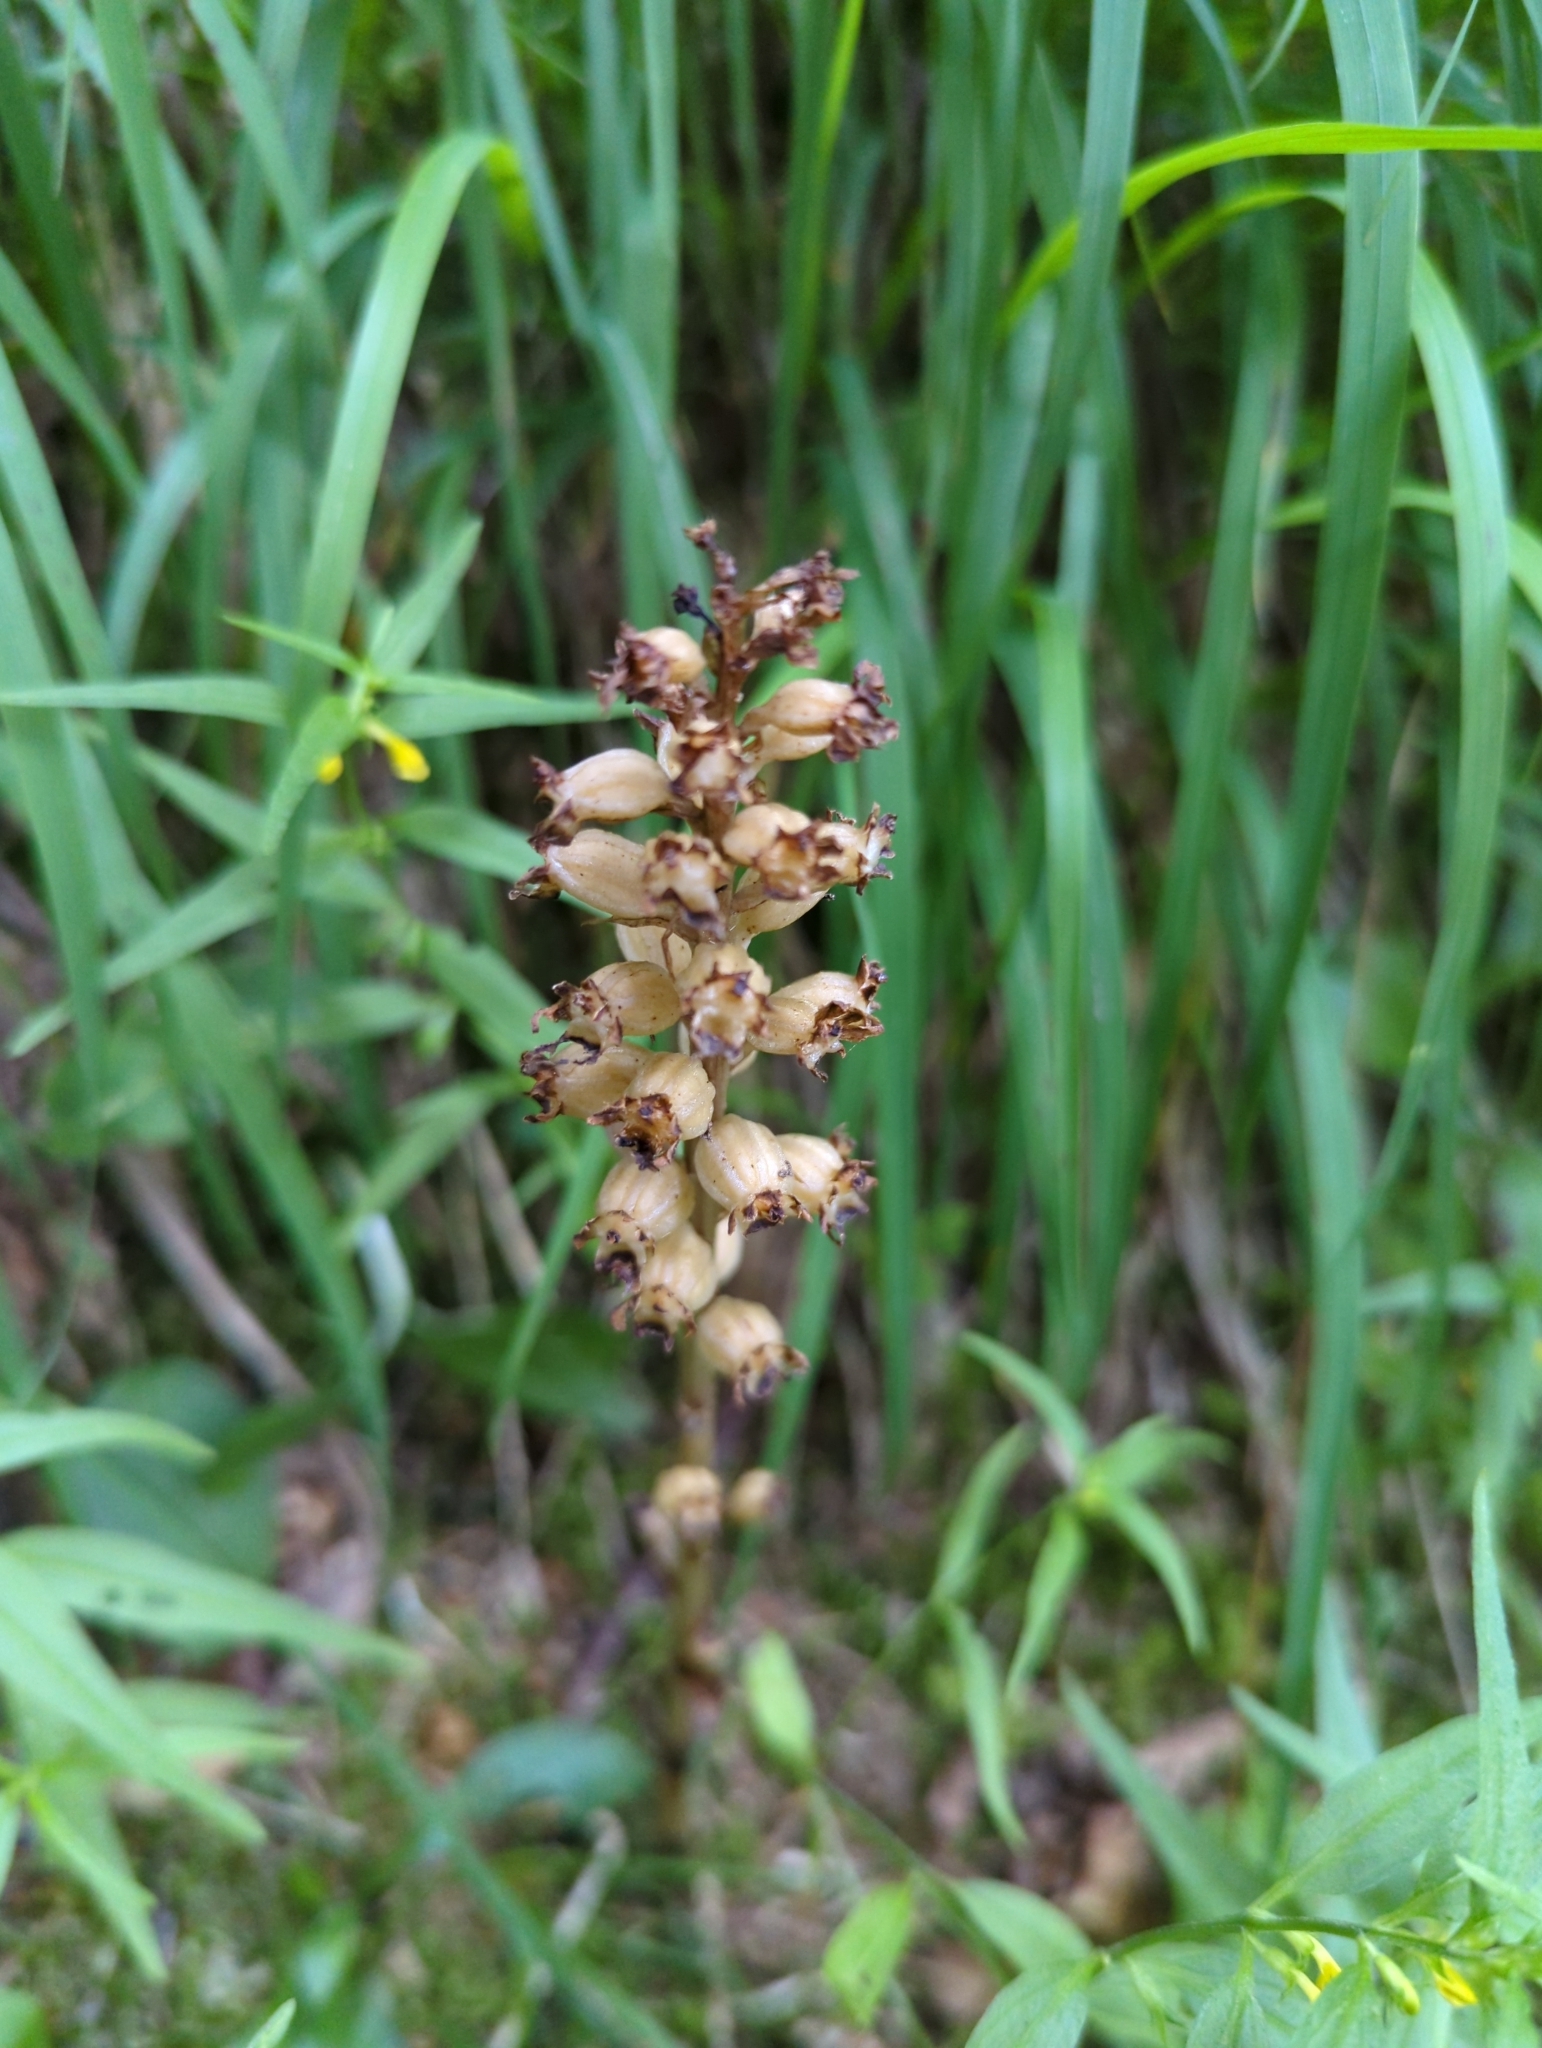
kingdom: Plantae
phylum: Tracheophyta
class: Liliopsida
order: Asparagales
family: Orchidaceae
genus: Neottia
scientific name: Neottia nidus-avis
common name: Bird's-nest orchid
